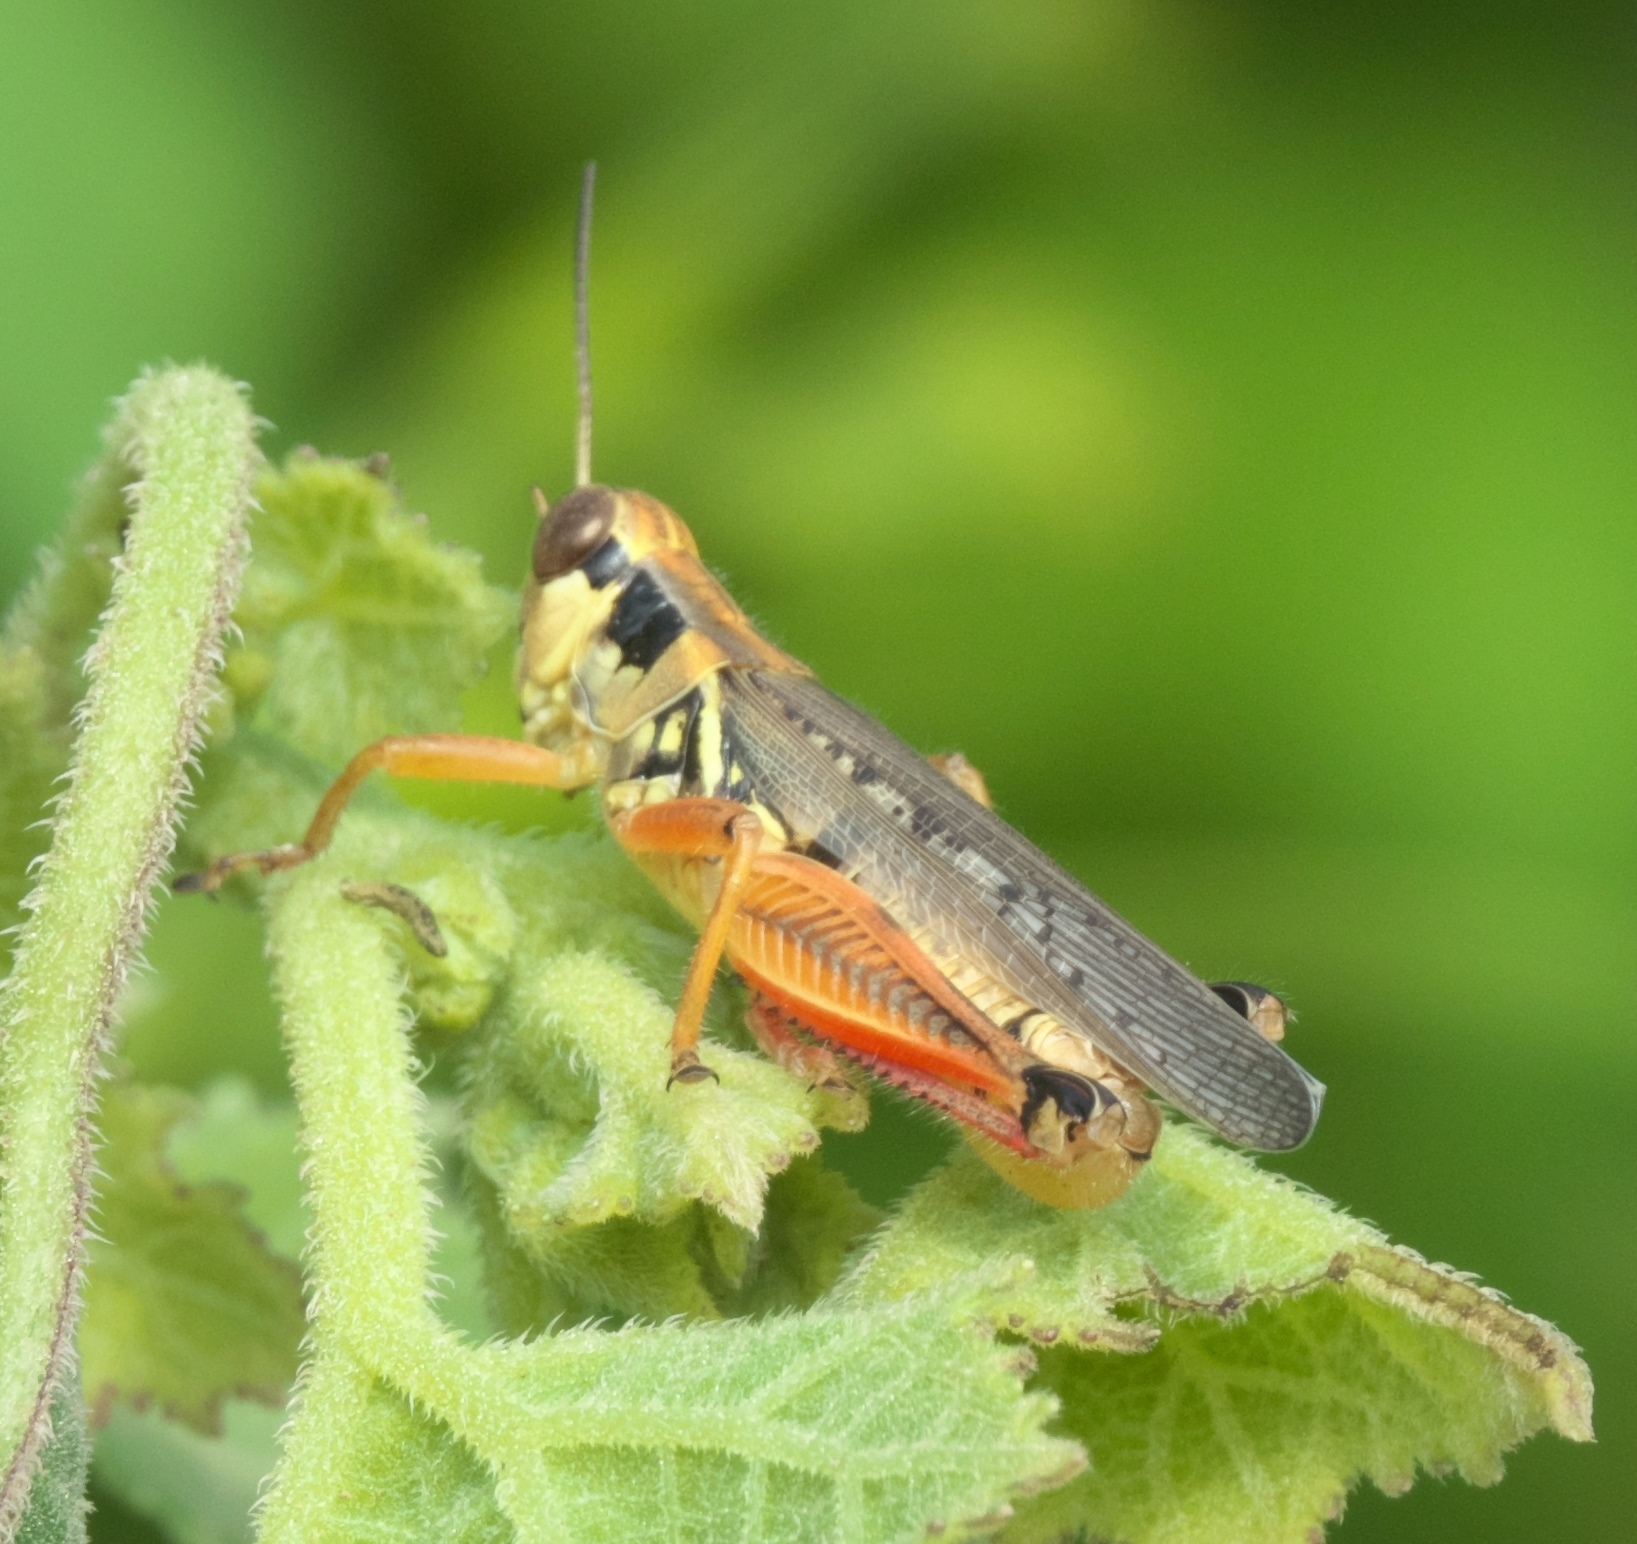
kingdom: Animalia
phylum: Arthropoda
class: Insecta
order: Orthoptera
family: Acrididae
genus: Melanoplus
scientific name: Melanoplus femurrubrum
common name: Red-legged grasshopper
